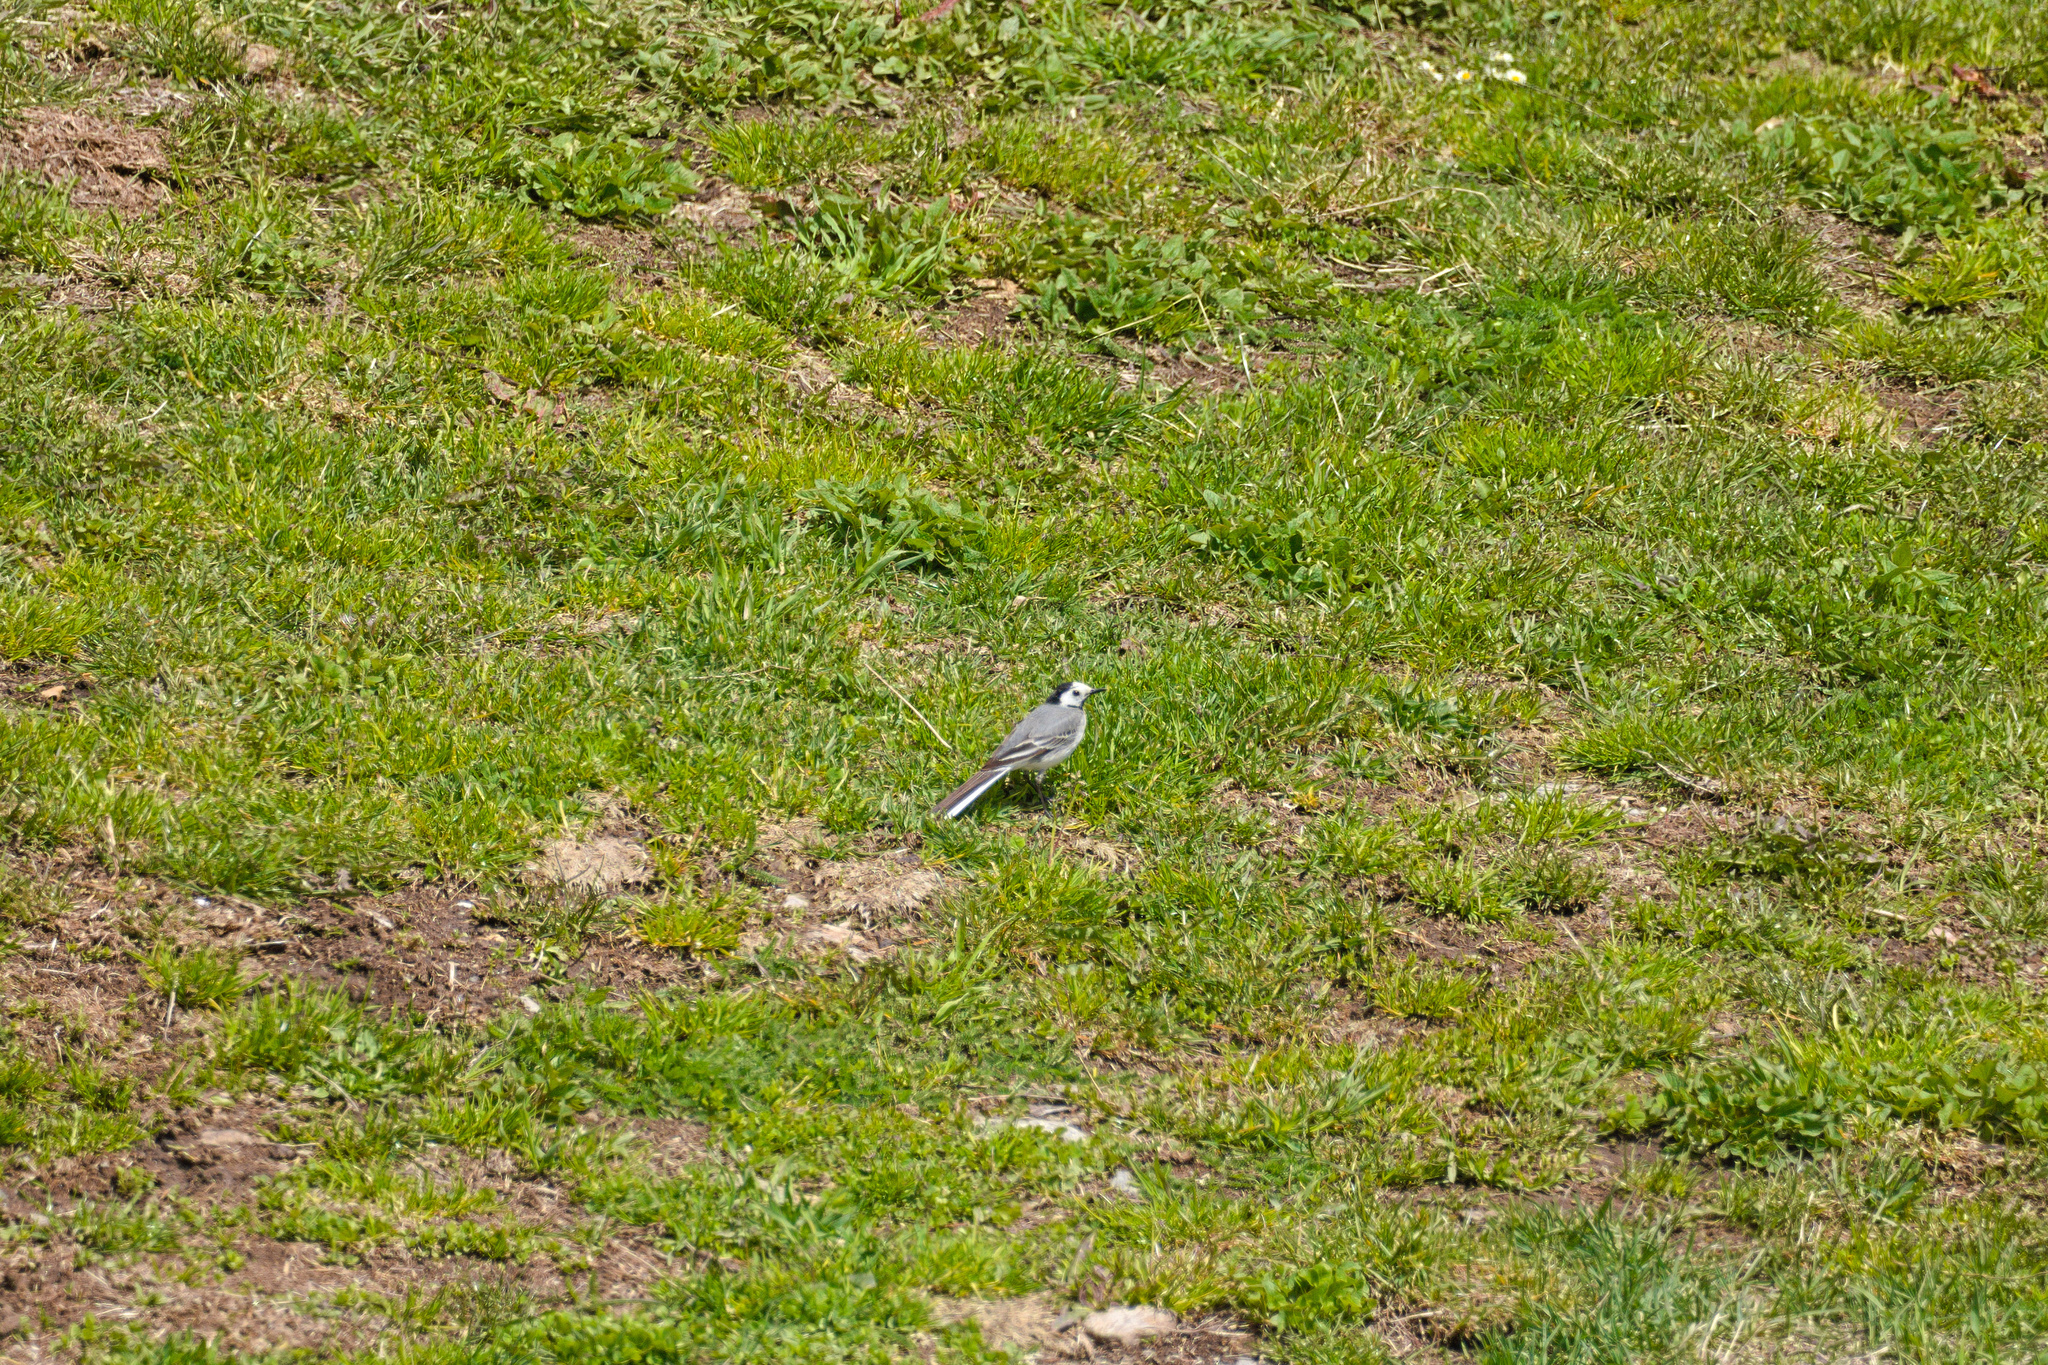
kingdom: Animalia
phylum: Chordata
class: Aves
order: Passeriformes
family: Motacillidae
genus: Motacilla
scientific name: Motacilla alba
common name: White wagtail
